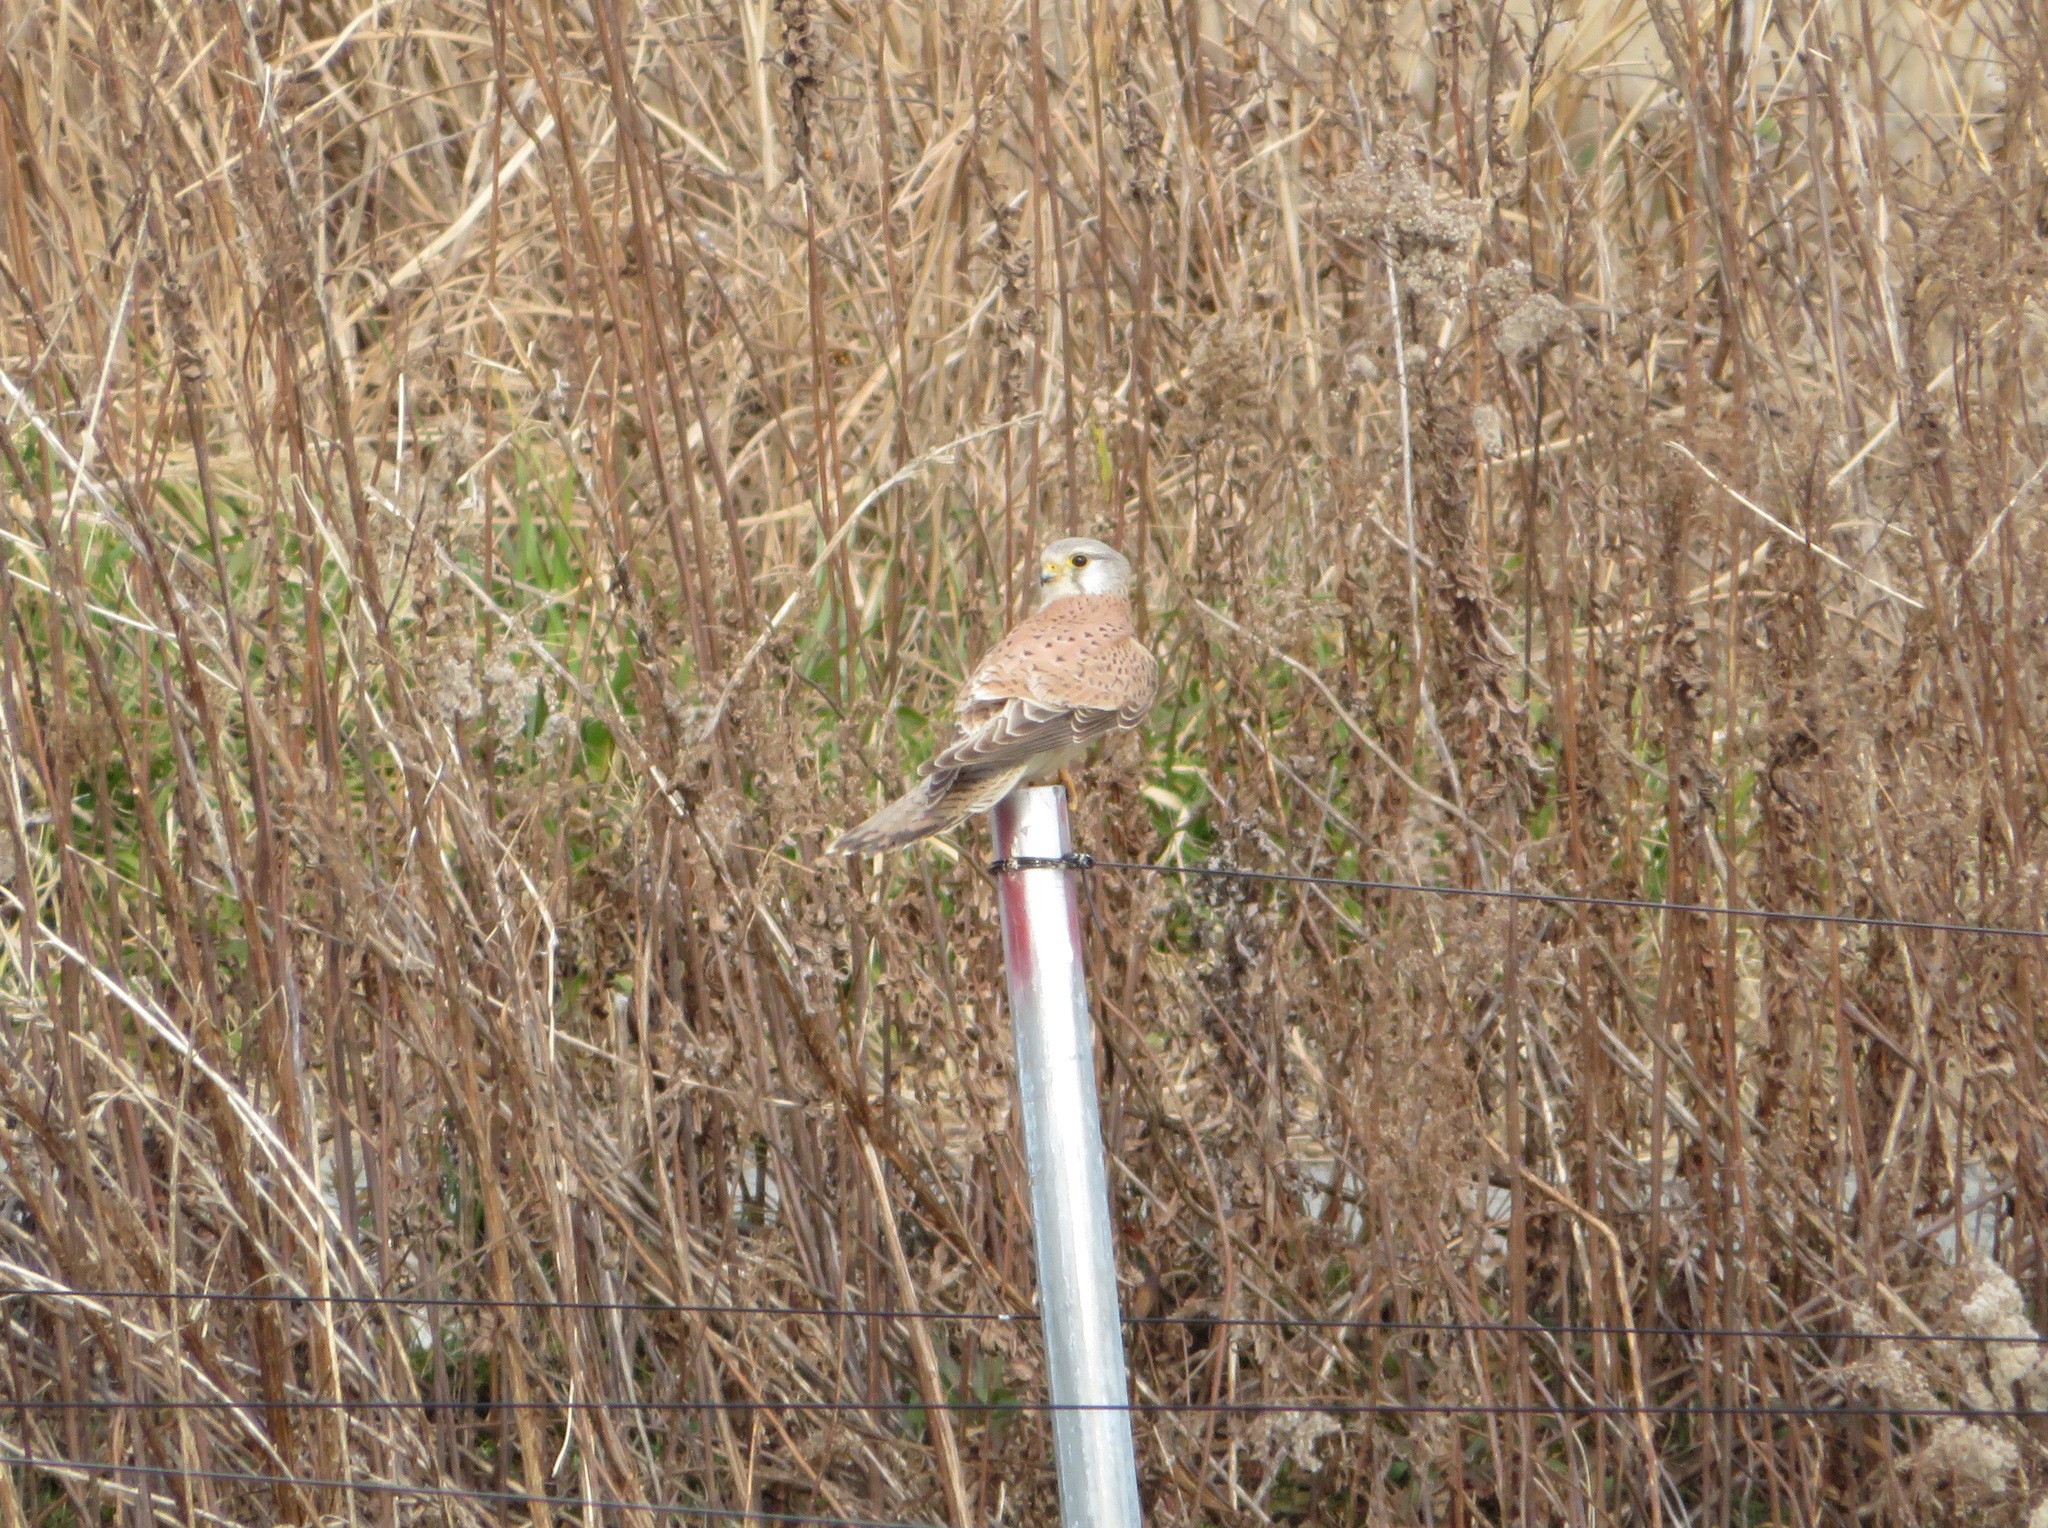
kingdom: Animalia
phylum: Chordata
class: Aves
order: Falconiformes
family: Falconidae
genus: Falco
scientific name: Falco tinnunculus
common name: Common kestrel
